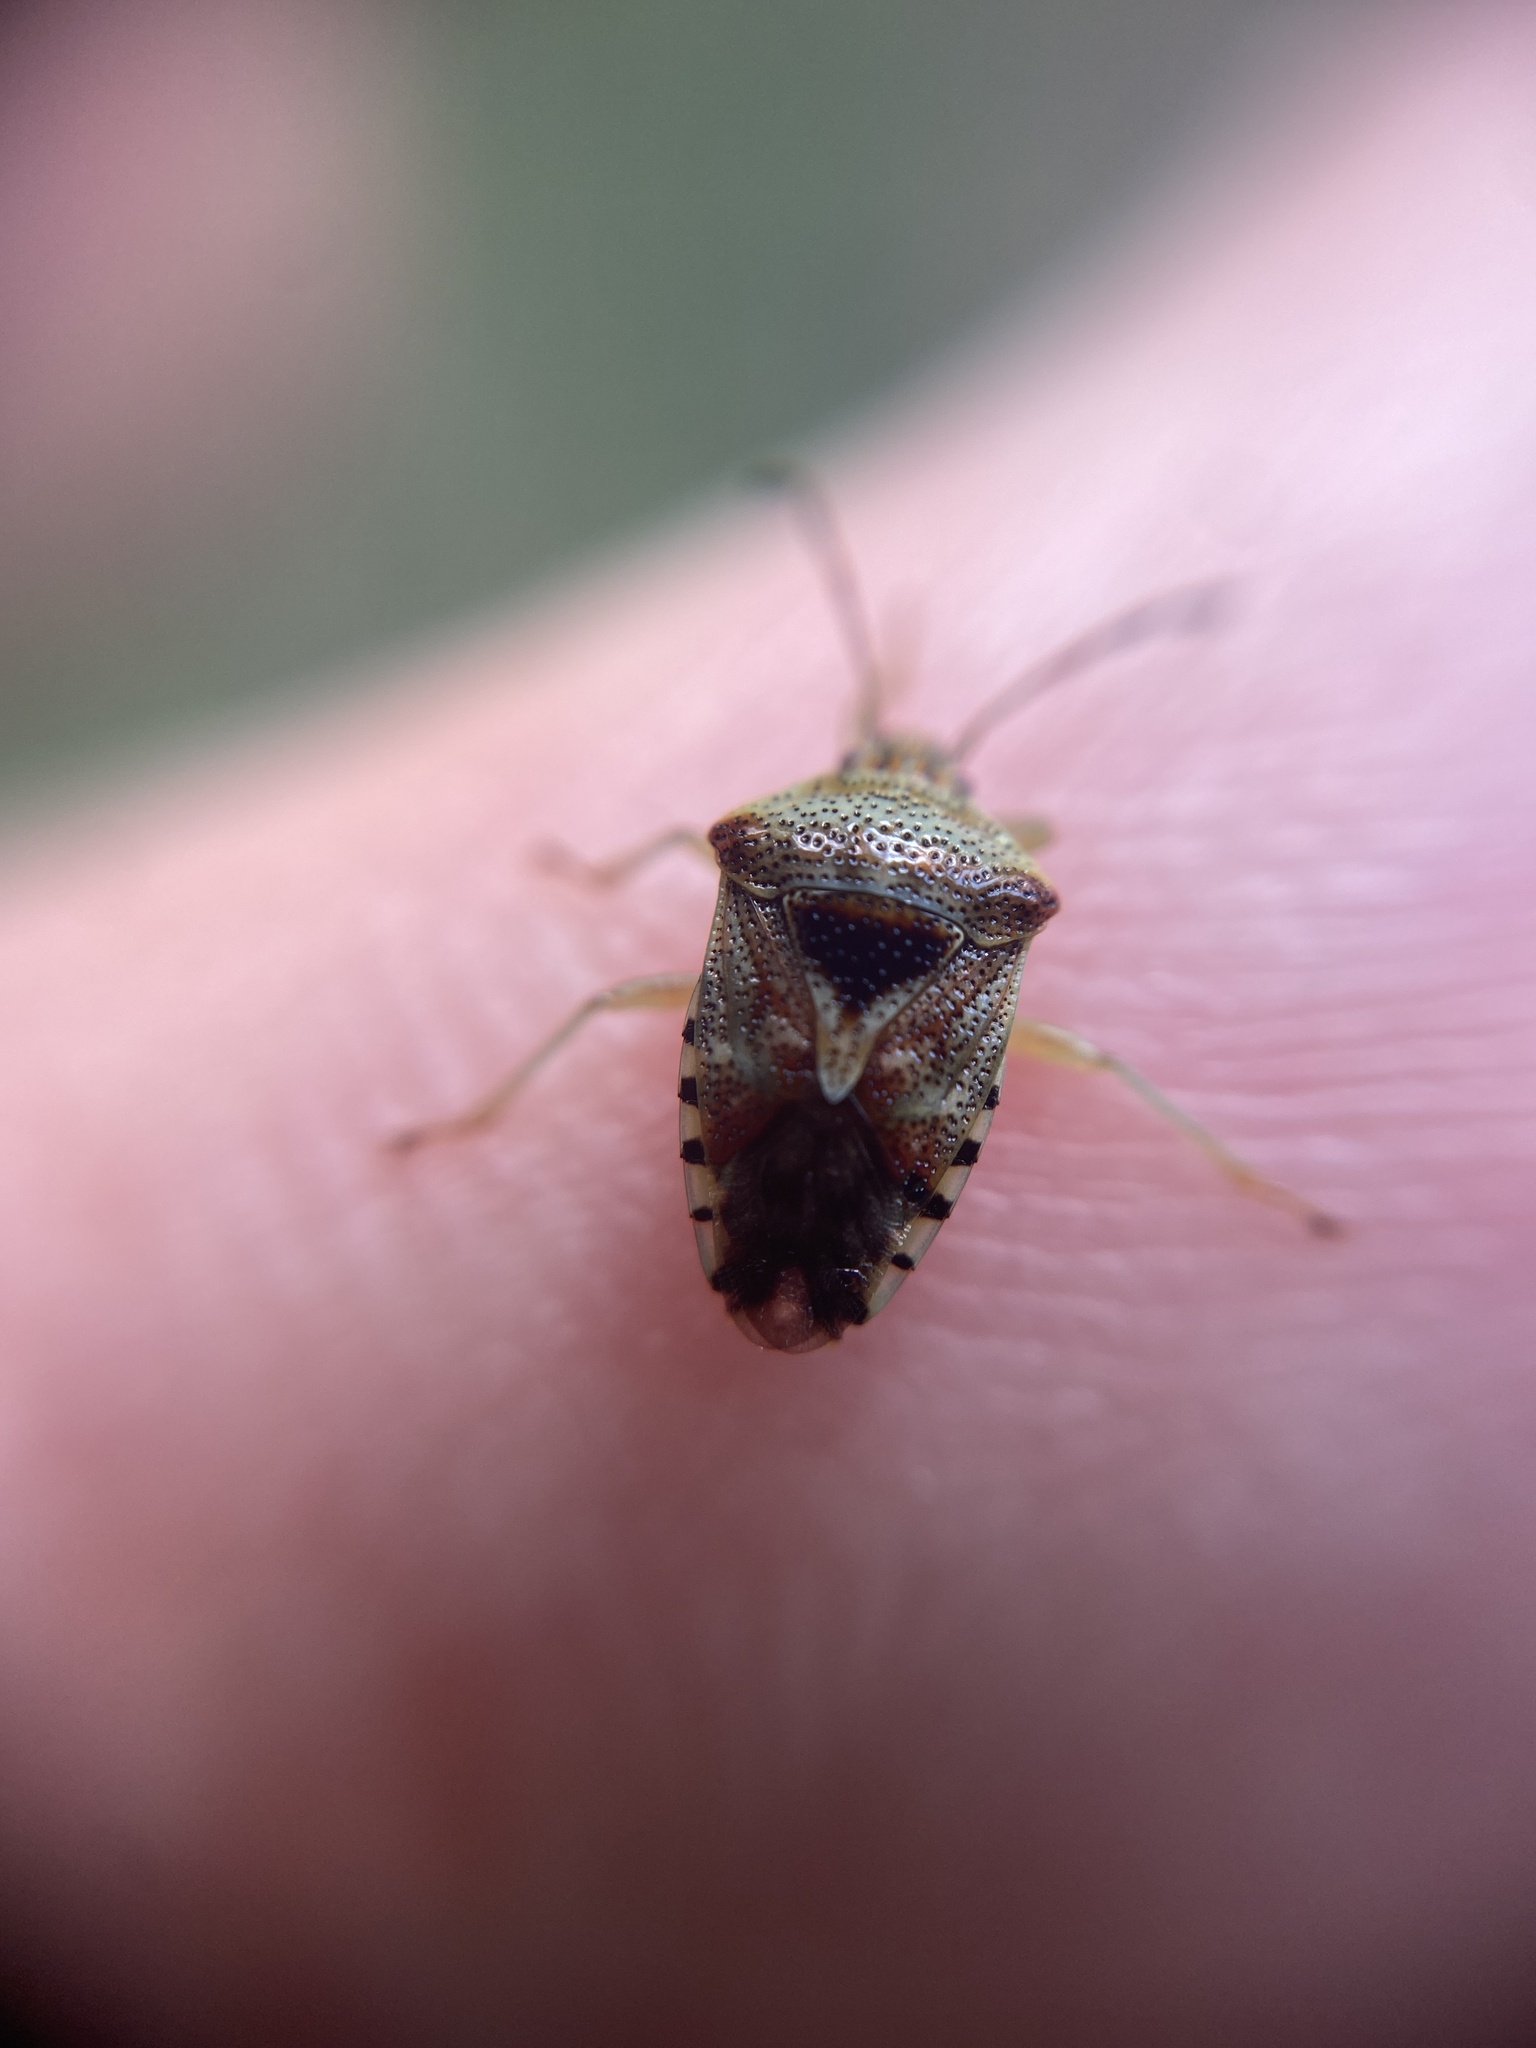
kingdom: Animalia
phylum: Arthropoda
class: Insecta
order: Hemiptera
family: Acanthosomatidae
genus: Elasmucha
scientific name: Elasmucha grisea
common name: Parent bug
